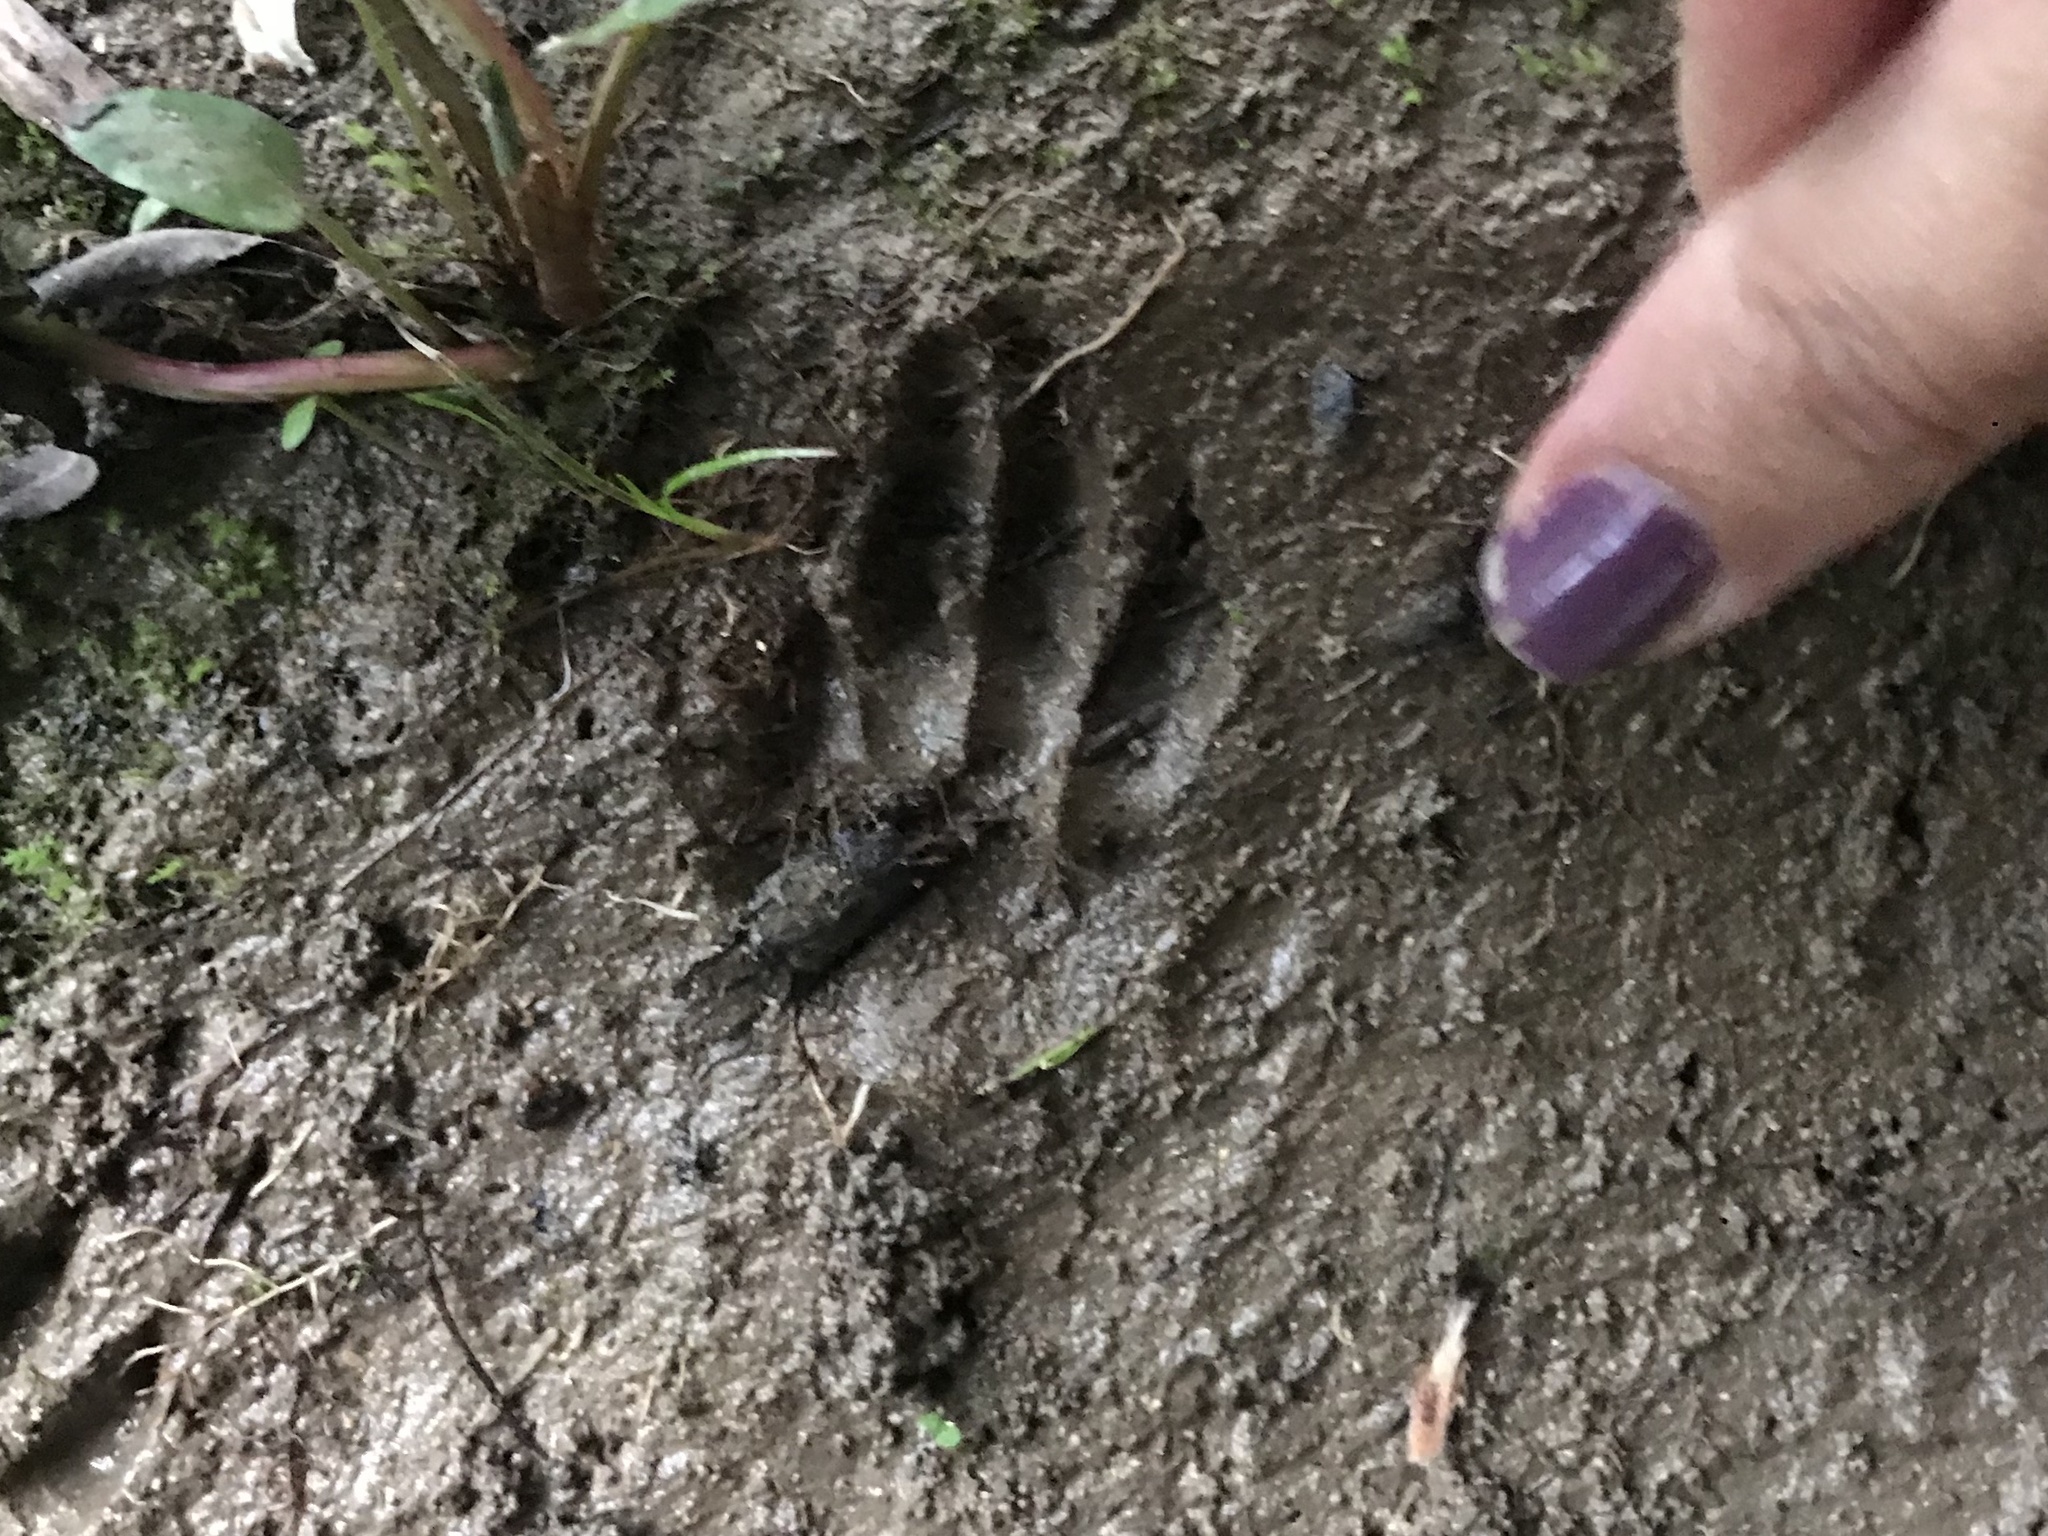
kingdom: Animalia
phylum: Chordata
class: Mammalia
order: Carnivora
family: Procyonidae
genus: Procyon
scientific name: Procyon lotor
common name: Raccoon
